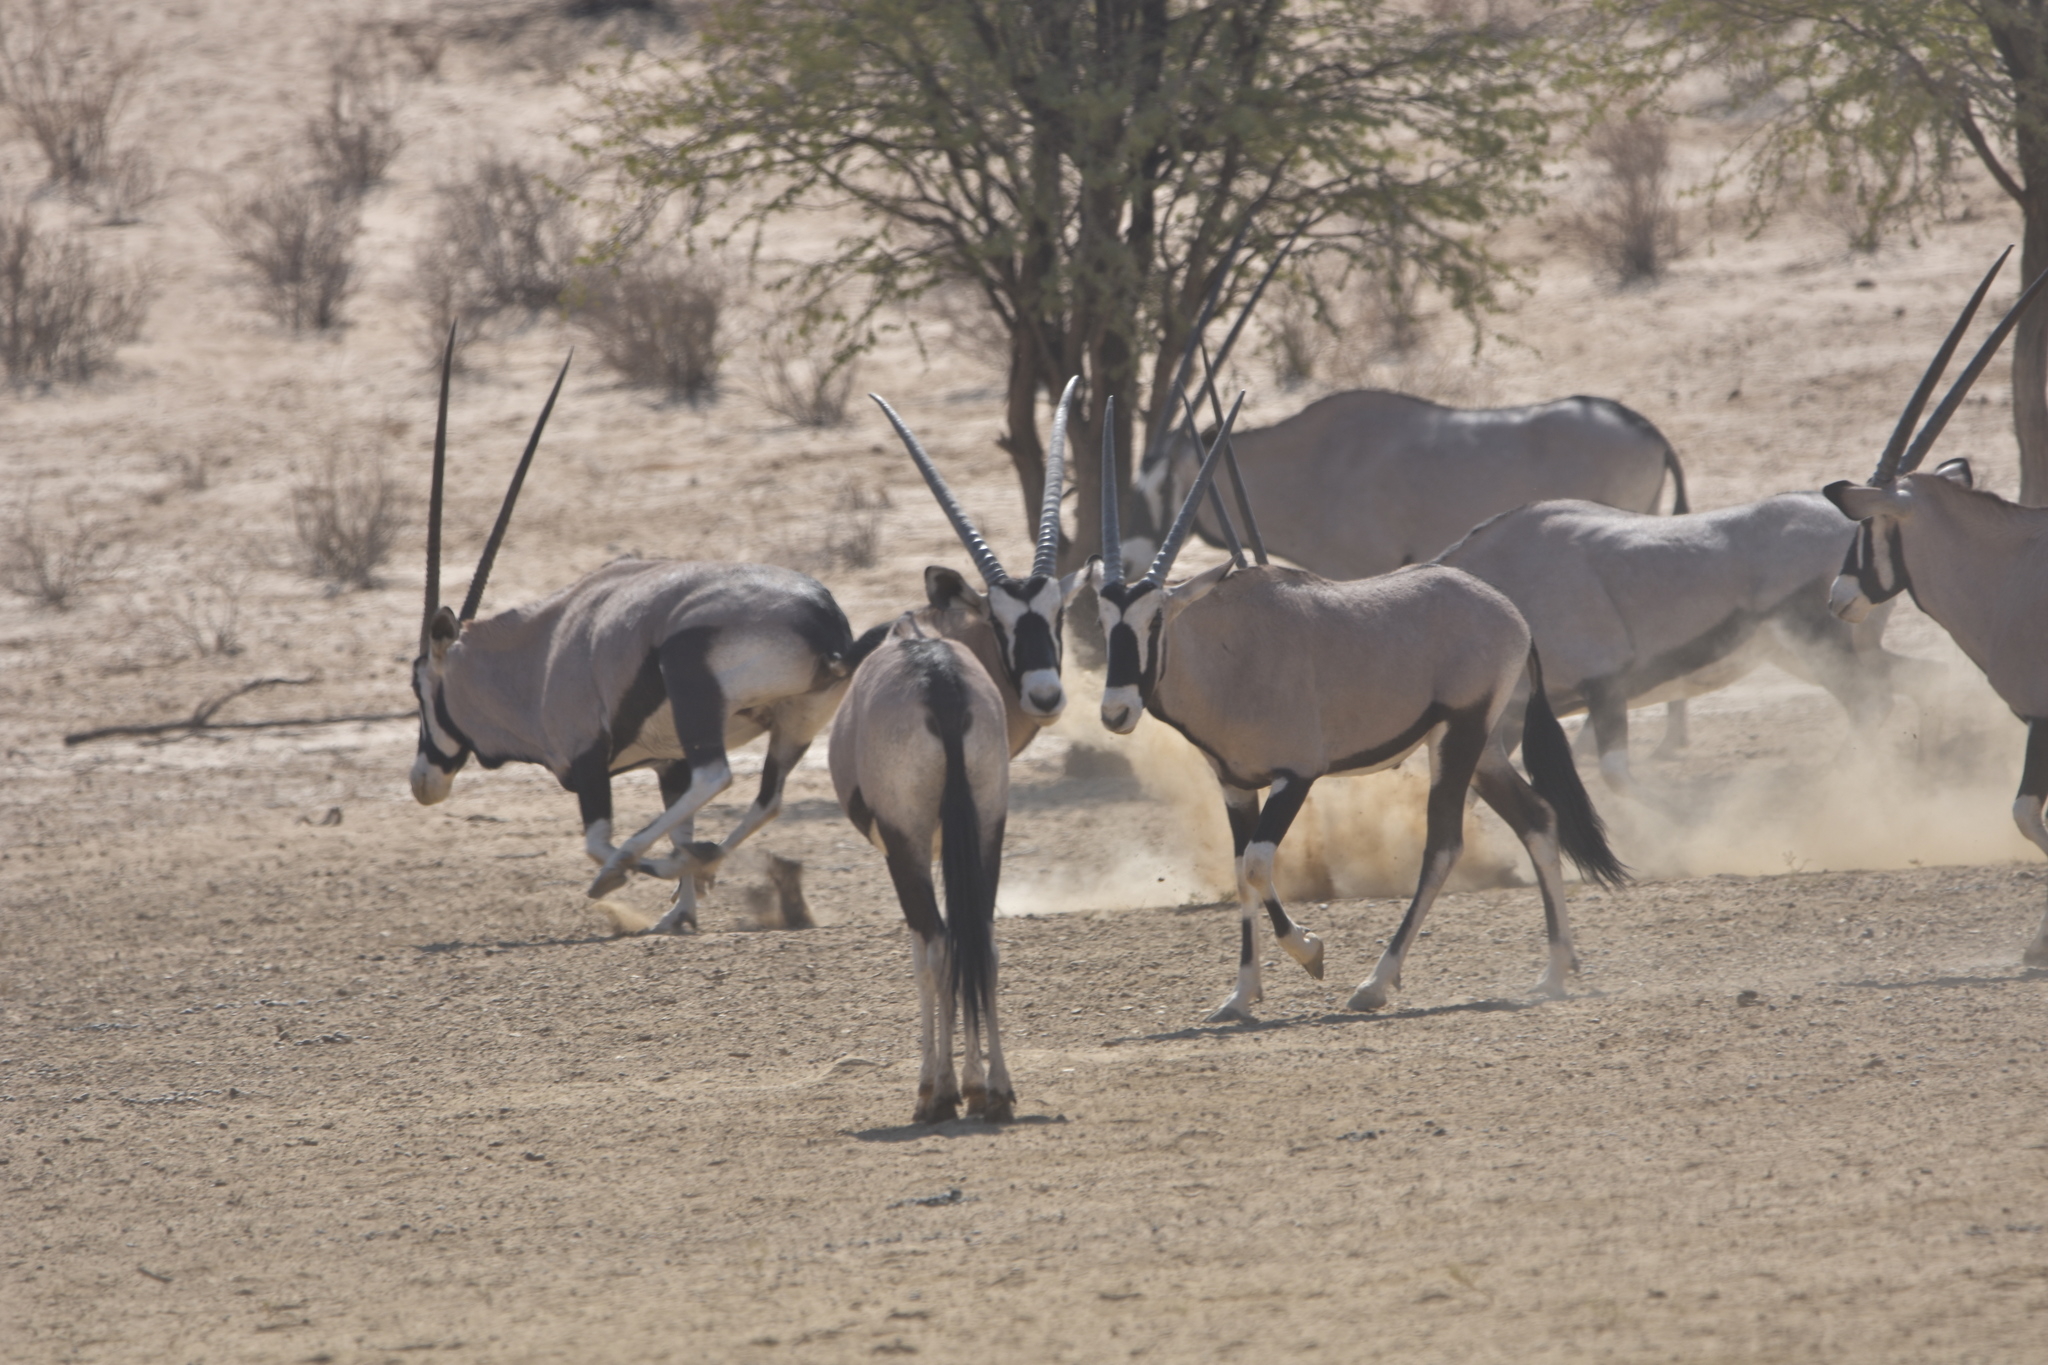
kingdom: Animalia
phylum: Chordata
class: Mammalia
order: Artiodactyla
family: Bovidae
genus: Oryx
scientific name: Oryx gazella
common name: Gemsbok
